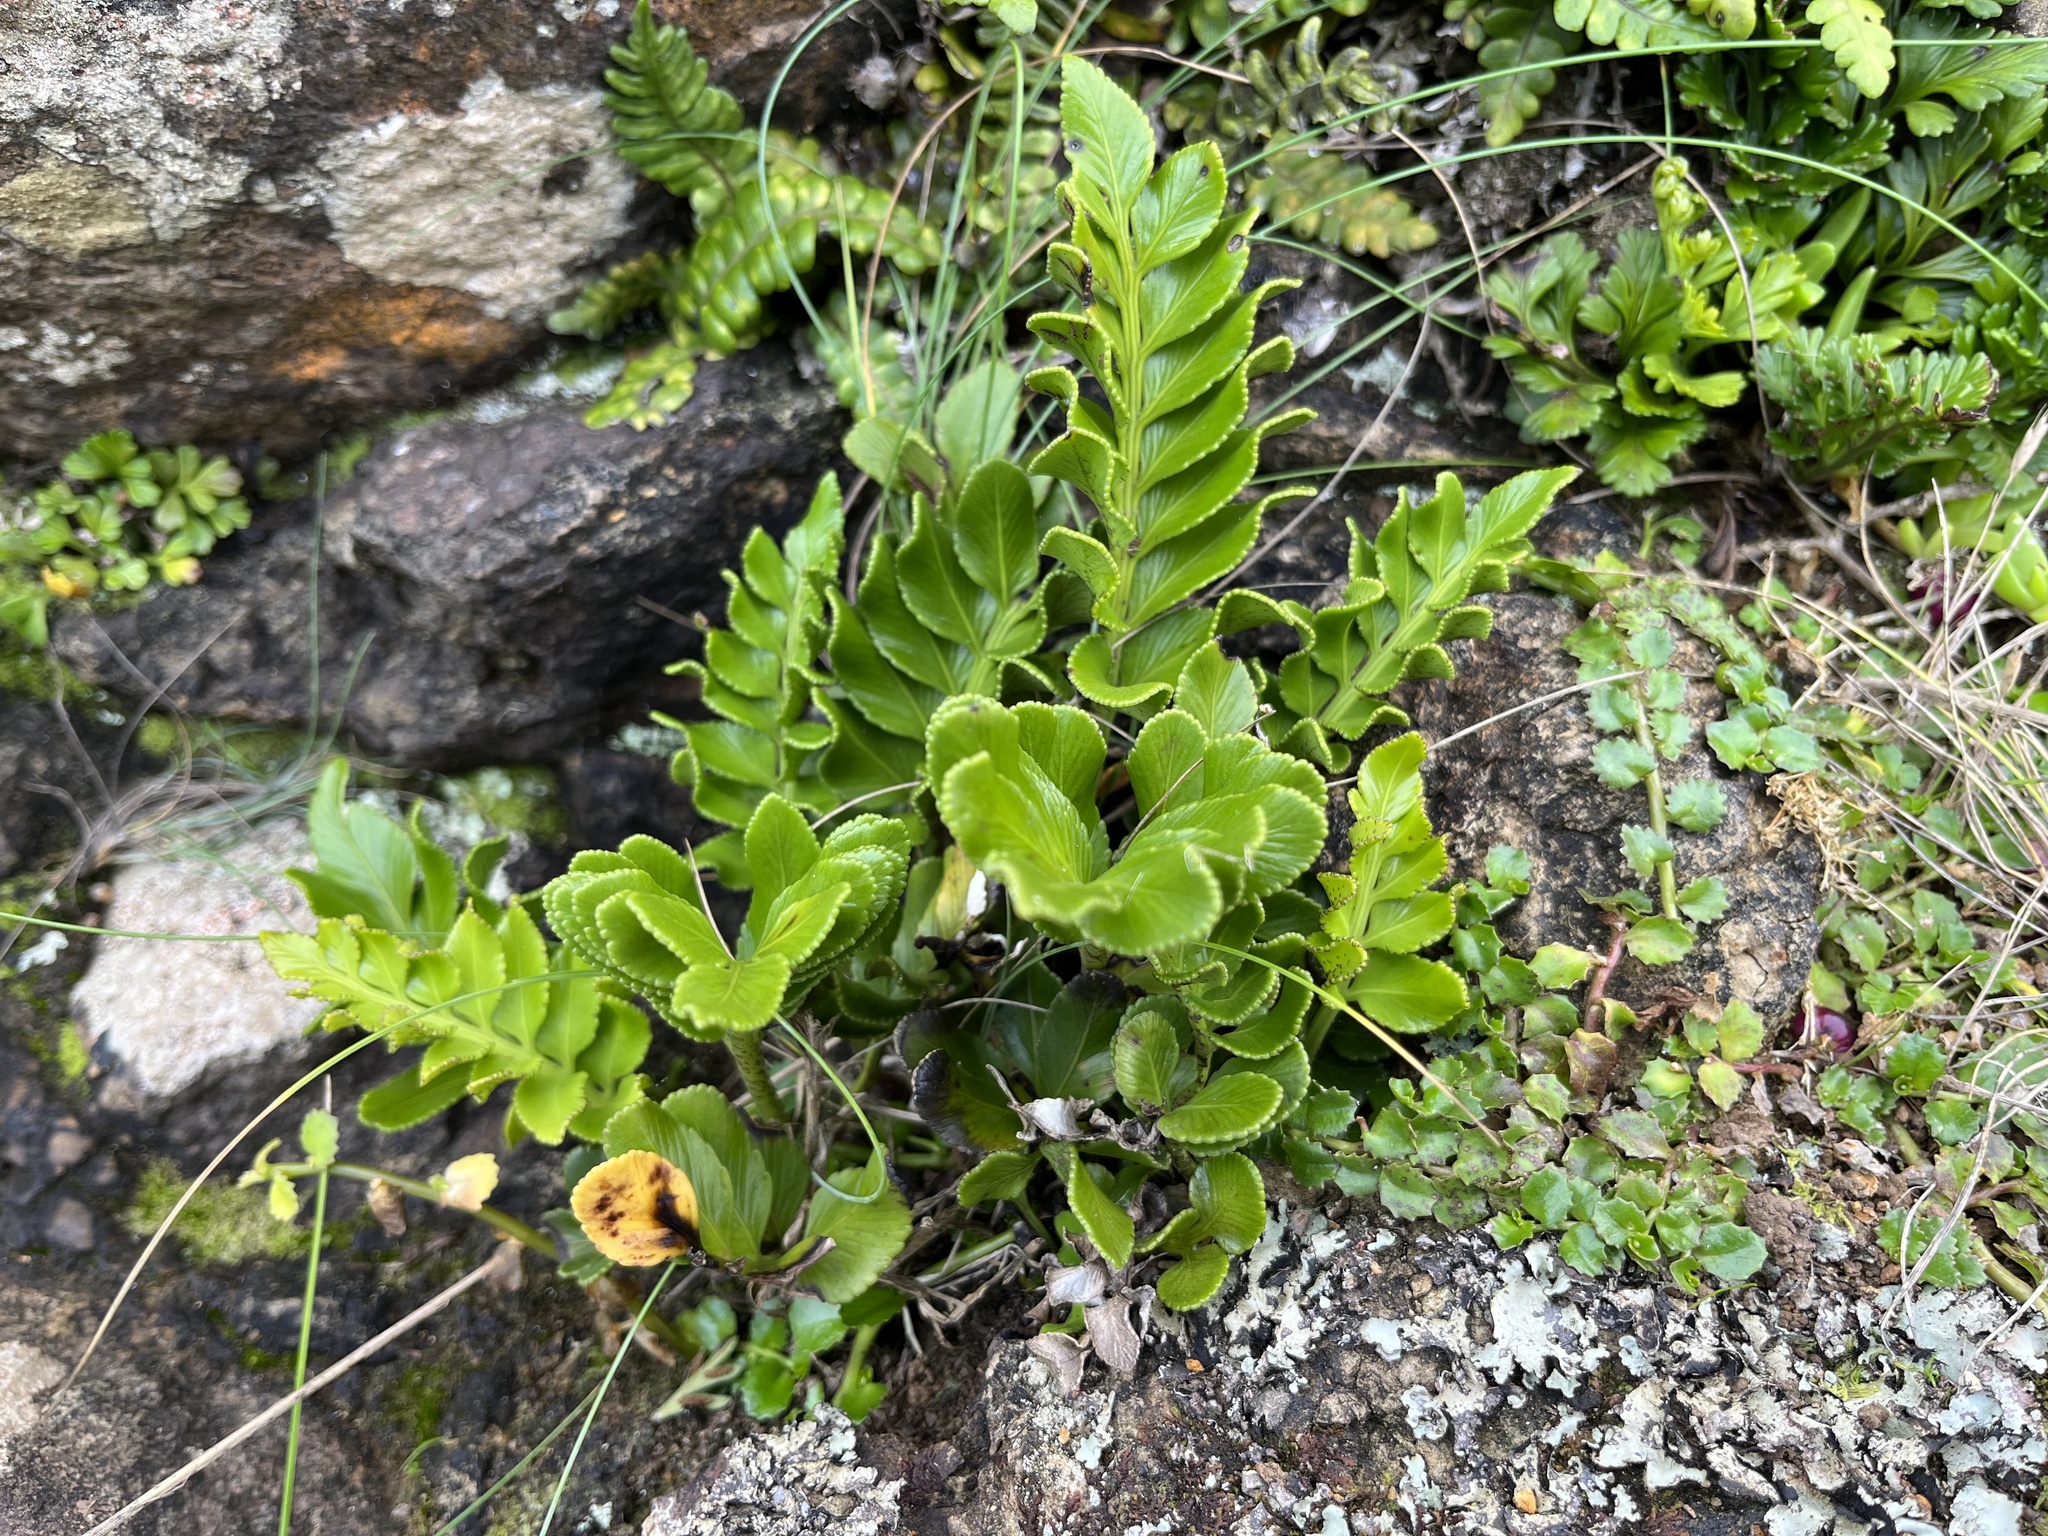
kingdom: Plantae
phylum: Tracheophyta
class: Polypodiopsida
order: Polypodiales
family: Aspleniaceae
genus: Asplenium
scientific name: Asplenium obtusatum
